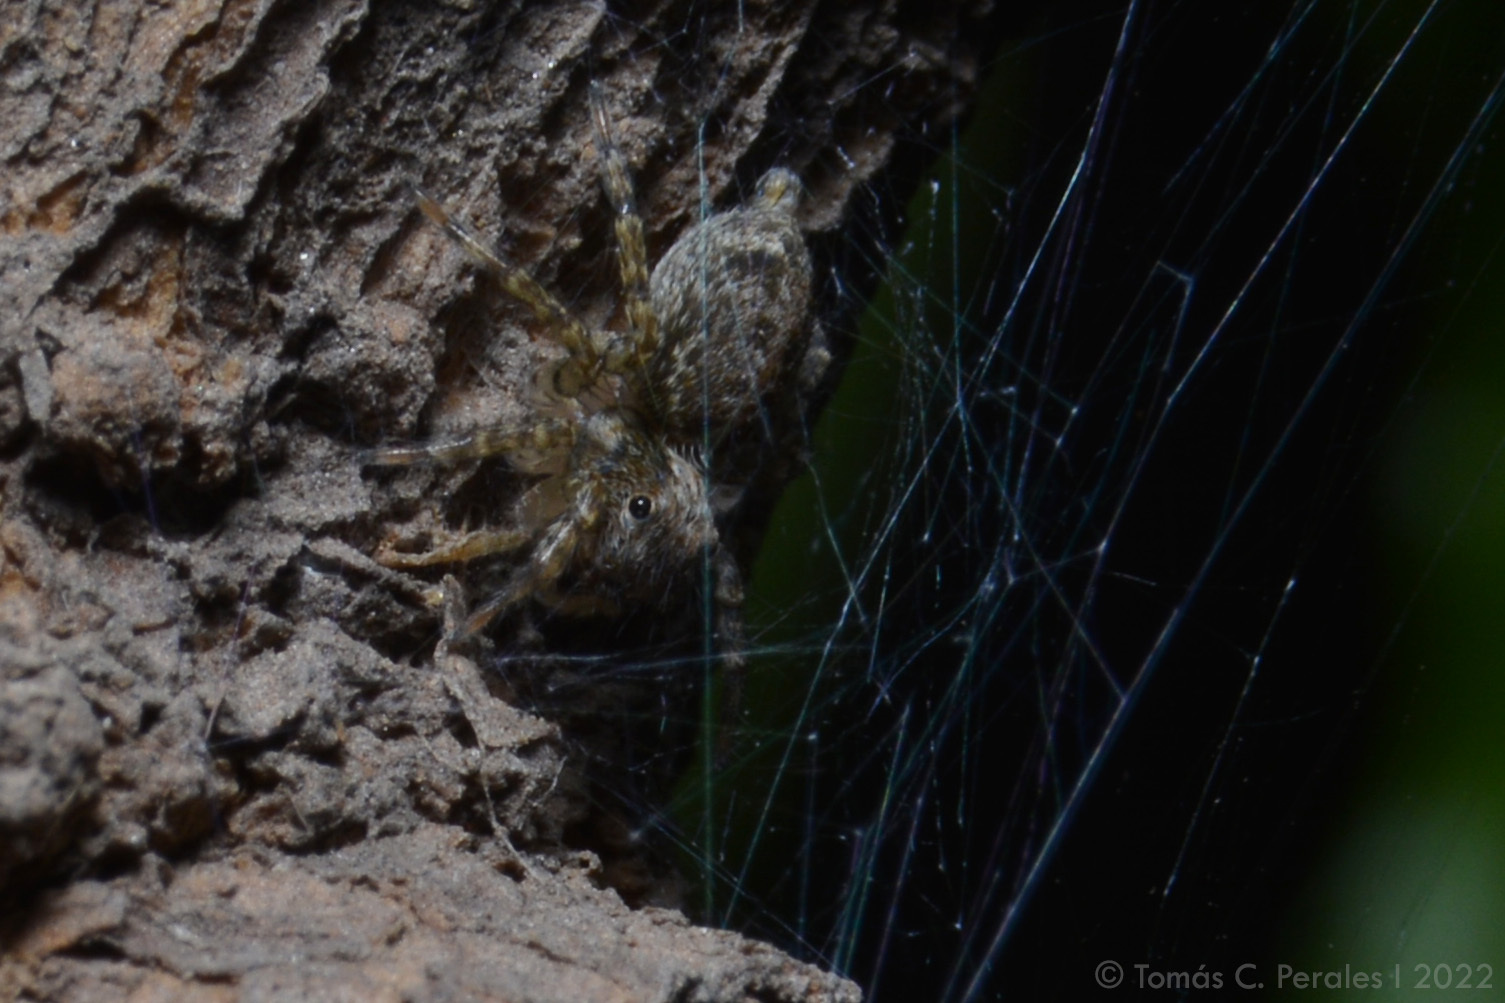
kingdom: Animalia
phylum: Arthropoda
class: Arachnida
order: Araneae
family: Salticidae
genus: Saitis
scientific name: Saitis variegatus
